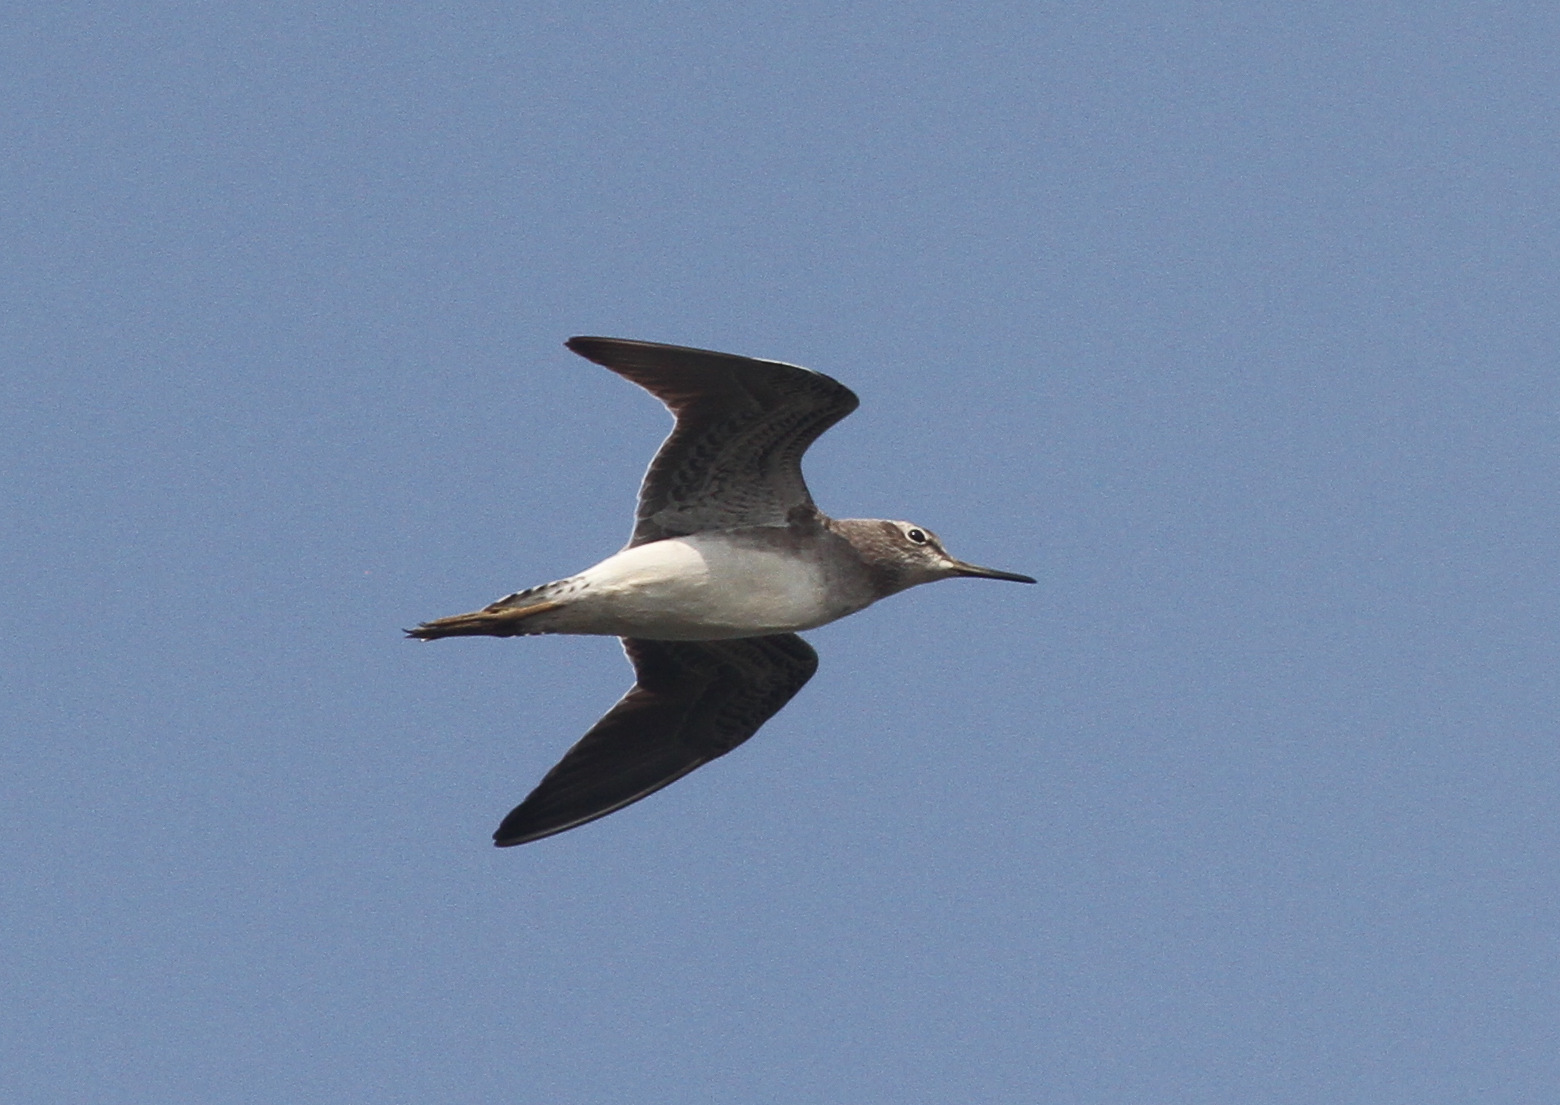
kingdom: Animalia
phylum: Chordata
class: Aves
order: Charadriiformes
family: Scolopacidae
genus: Tringa
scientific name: Tringa glareola
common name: Wood sandpiper
